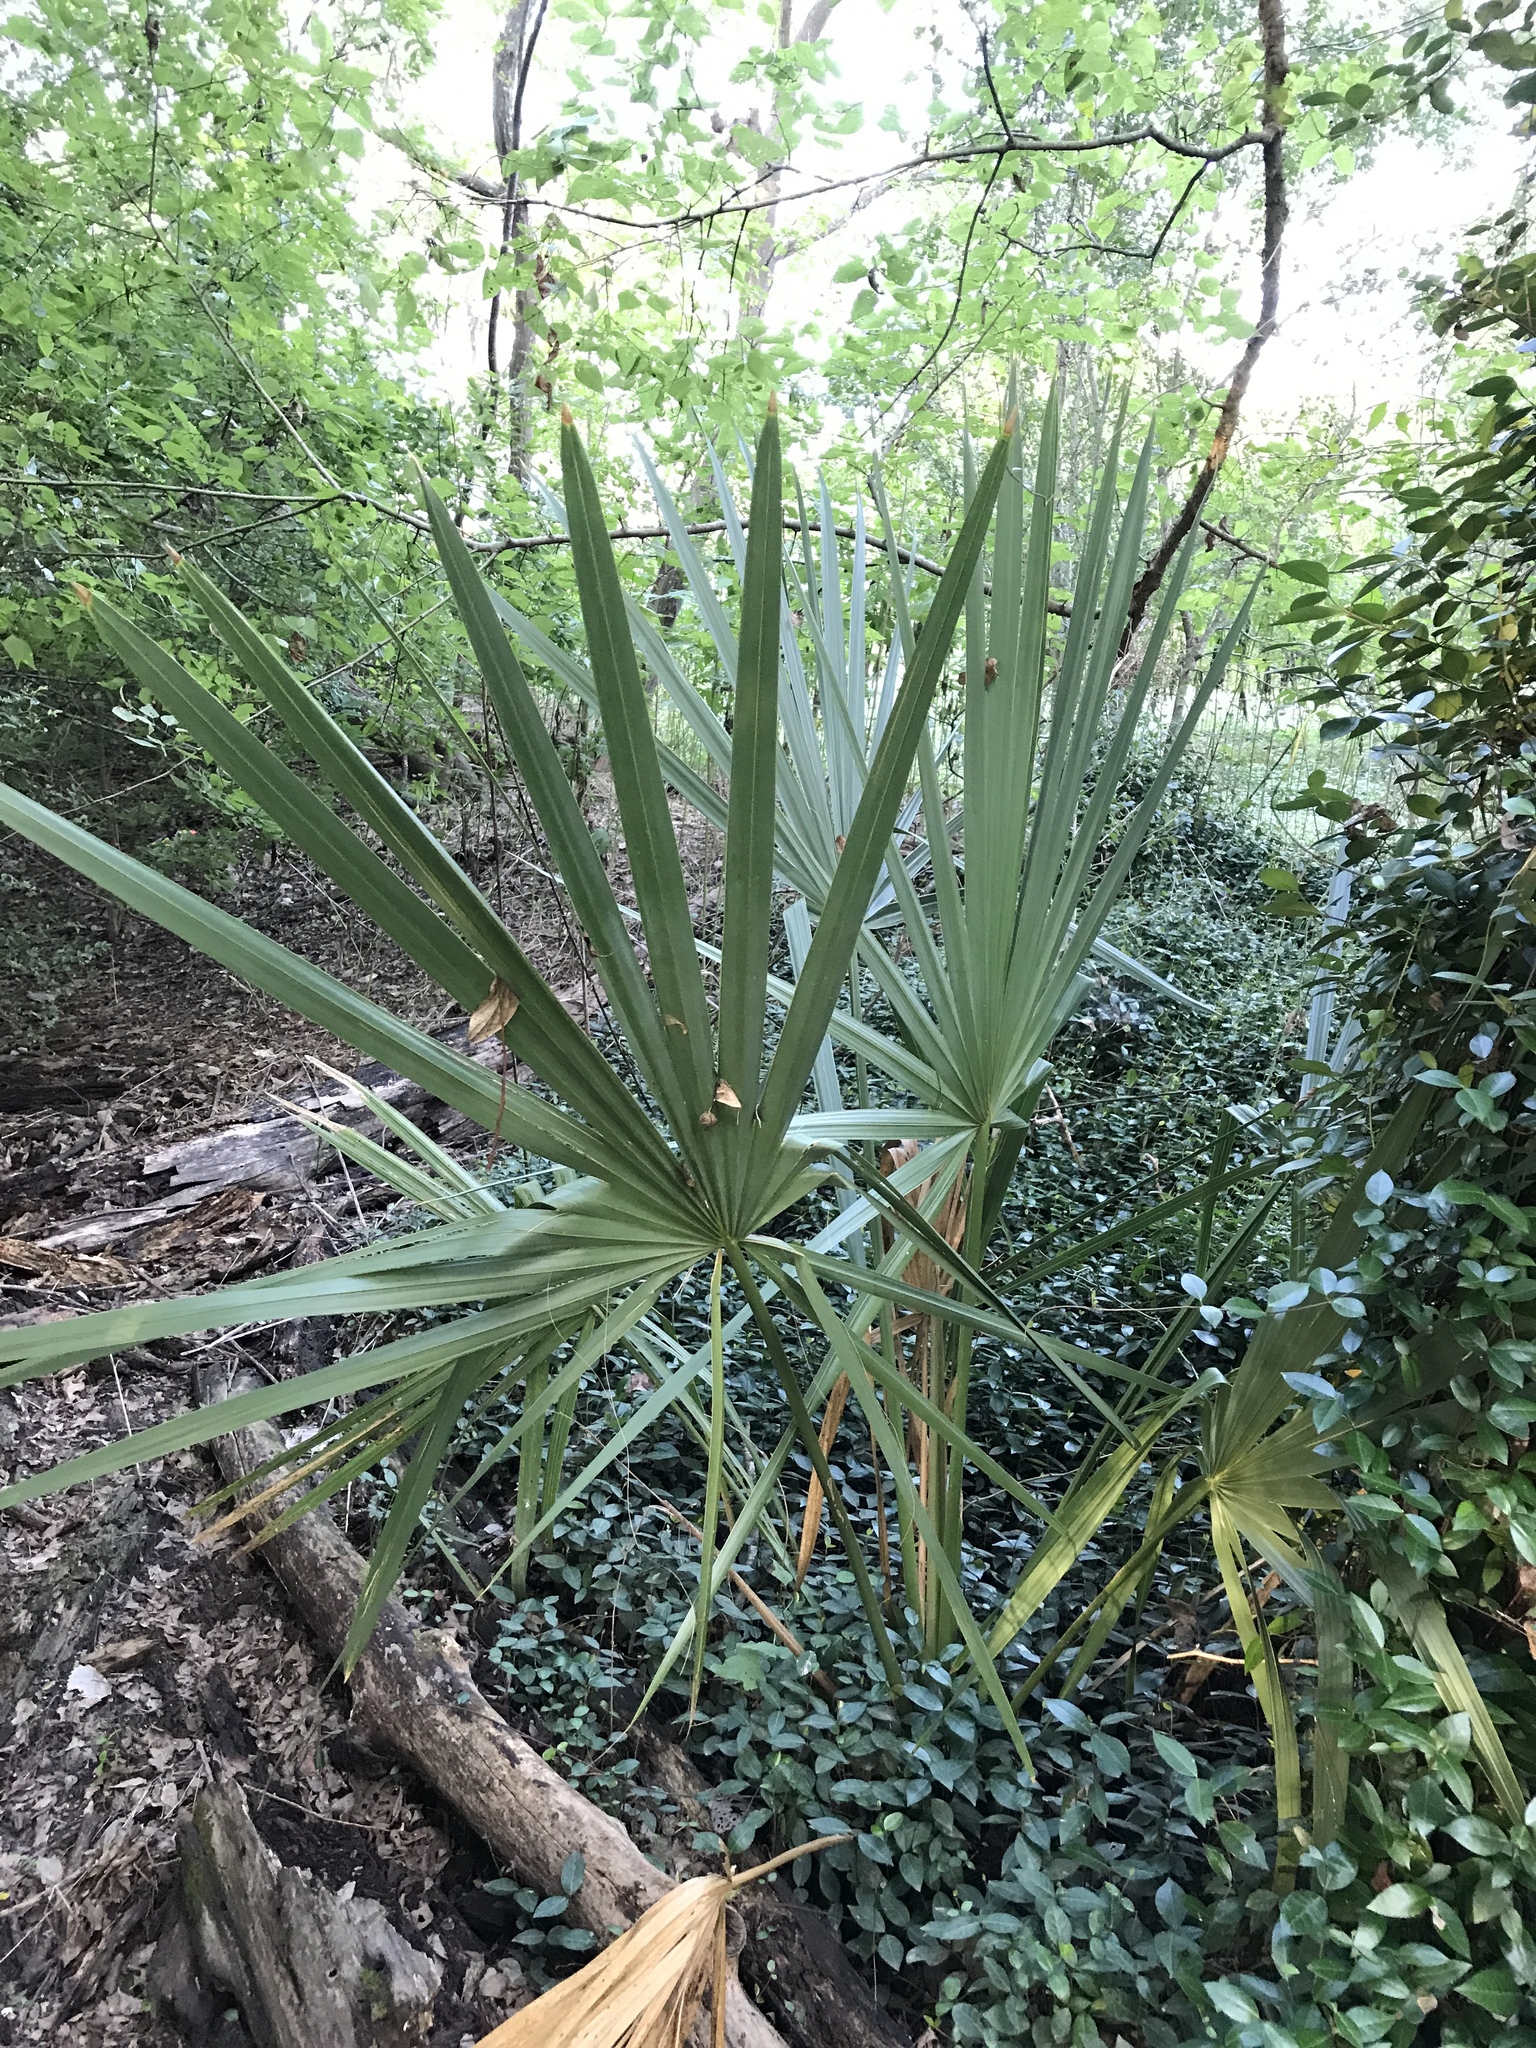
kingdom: Plantae
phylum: Tracheophyta
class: Liliopsida
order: Arecales
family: Arecaceae
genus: Sabal
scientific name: Sabal minor
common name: Dwarf palmetto
